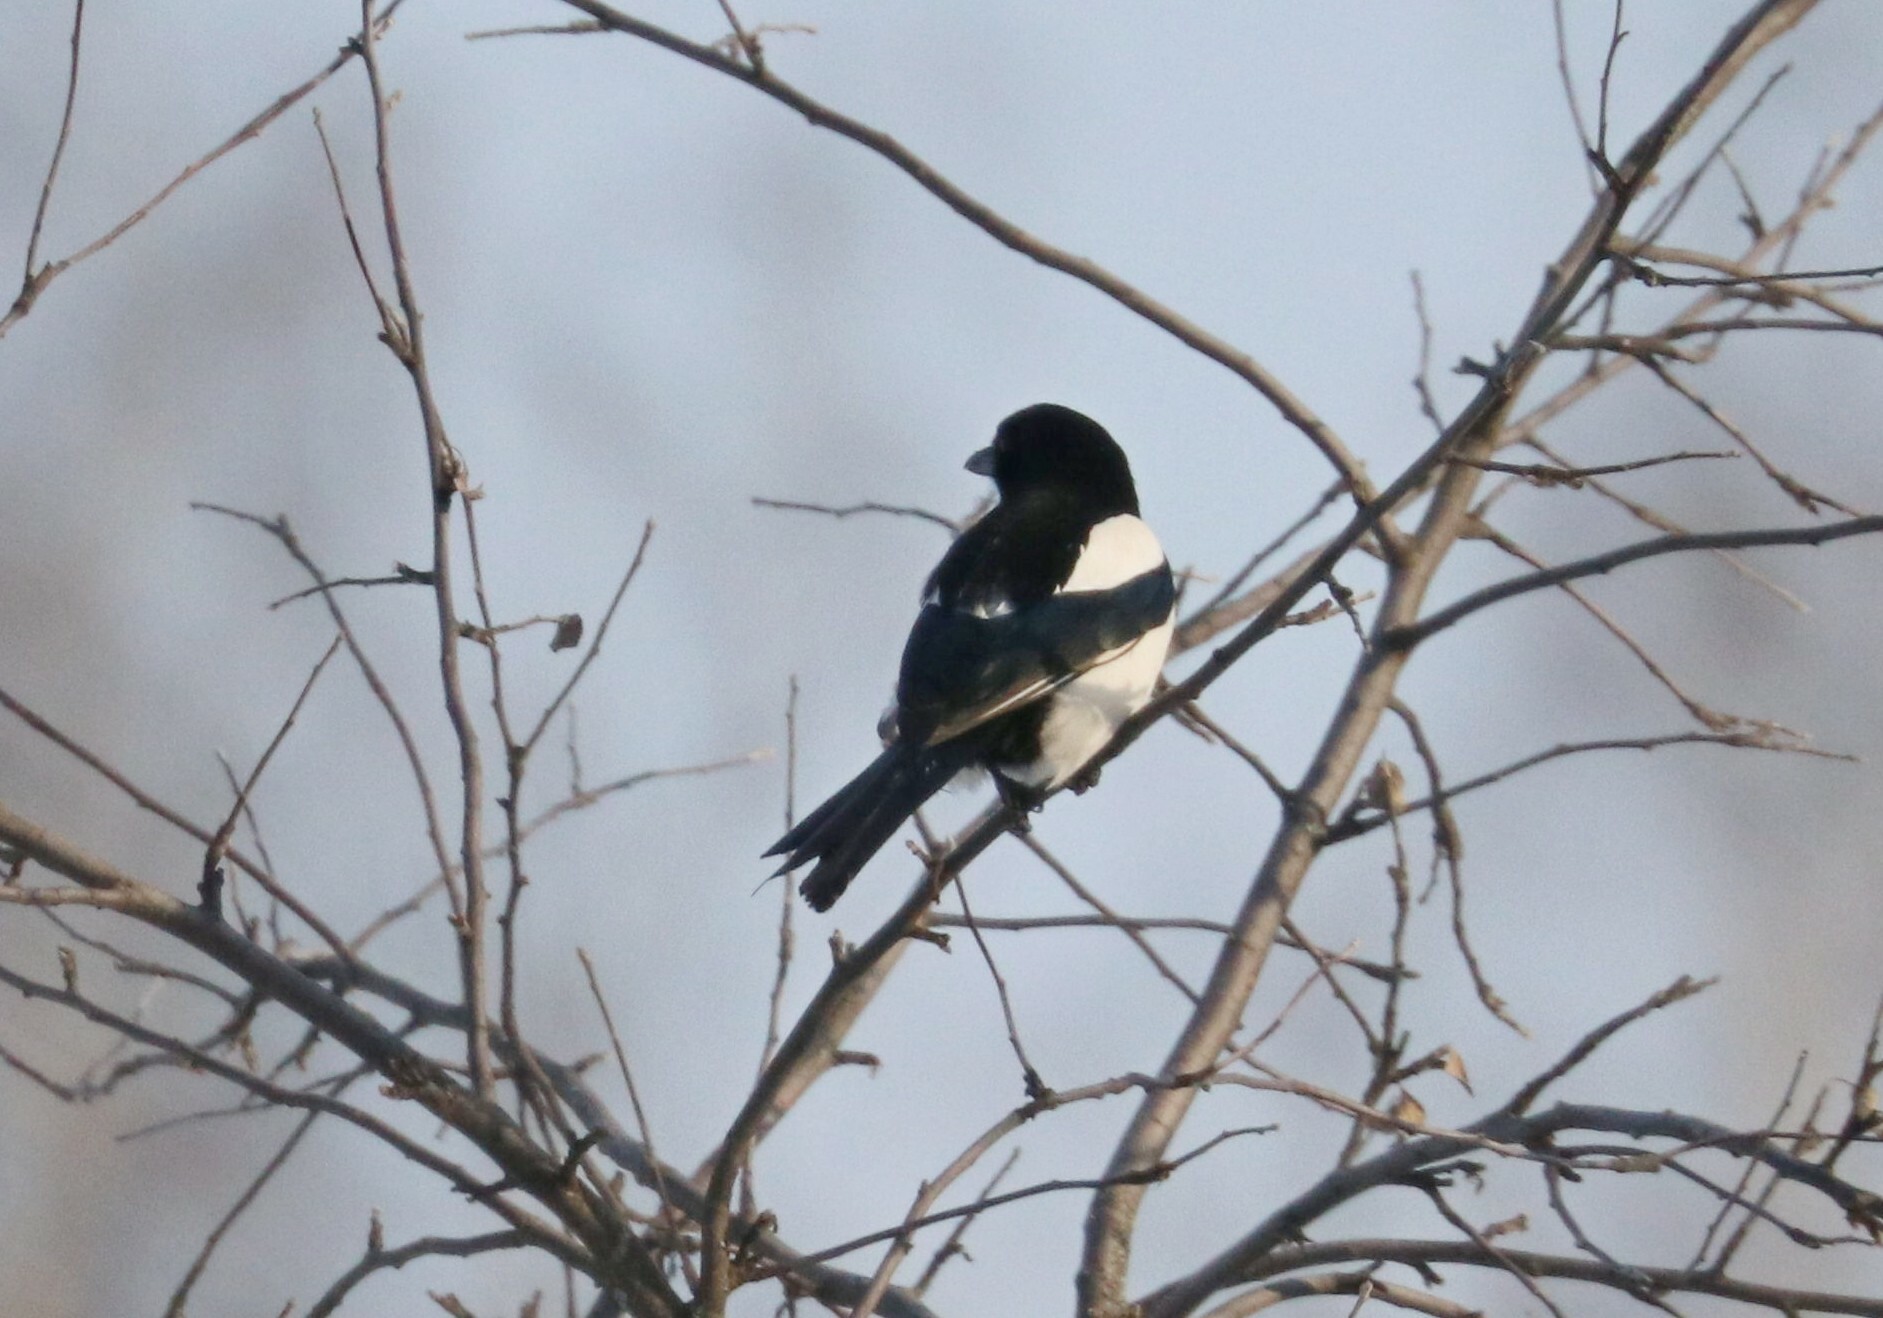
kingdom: Animalia
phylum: Chordata
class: Aves
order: Passeriformes
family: Corvidae
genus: Pica
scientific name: Pica pica
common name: Eurasian magpie
